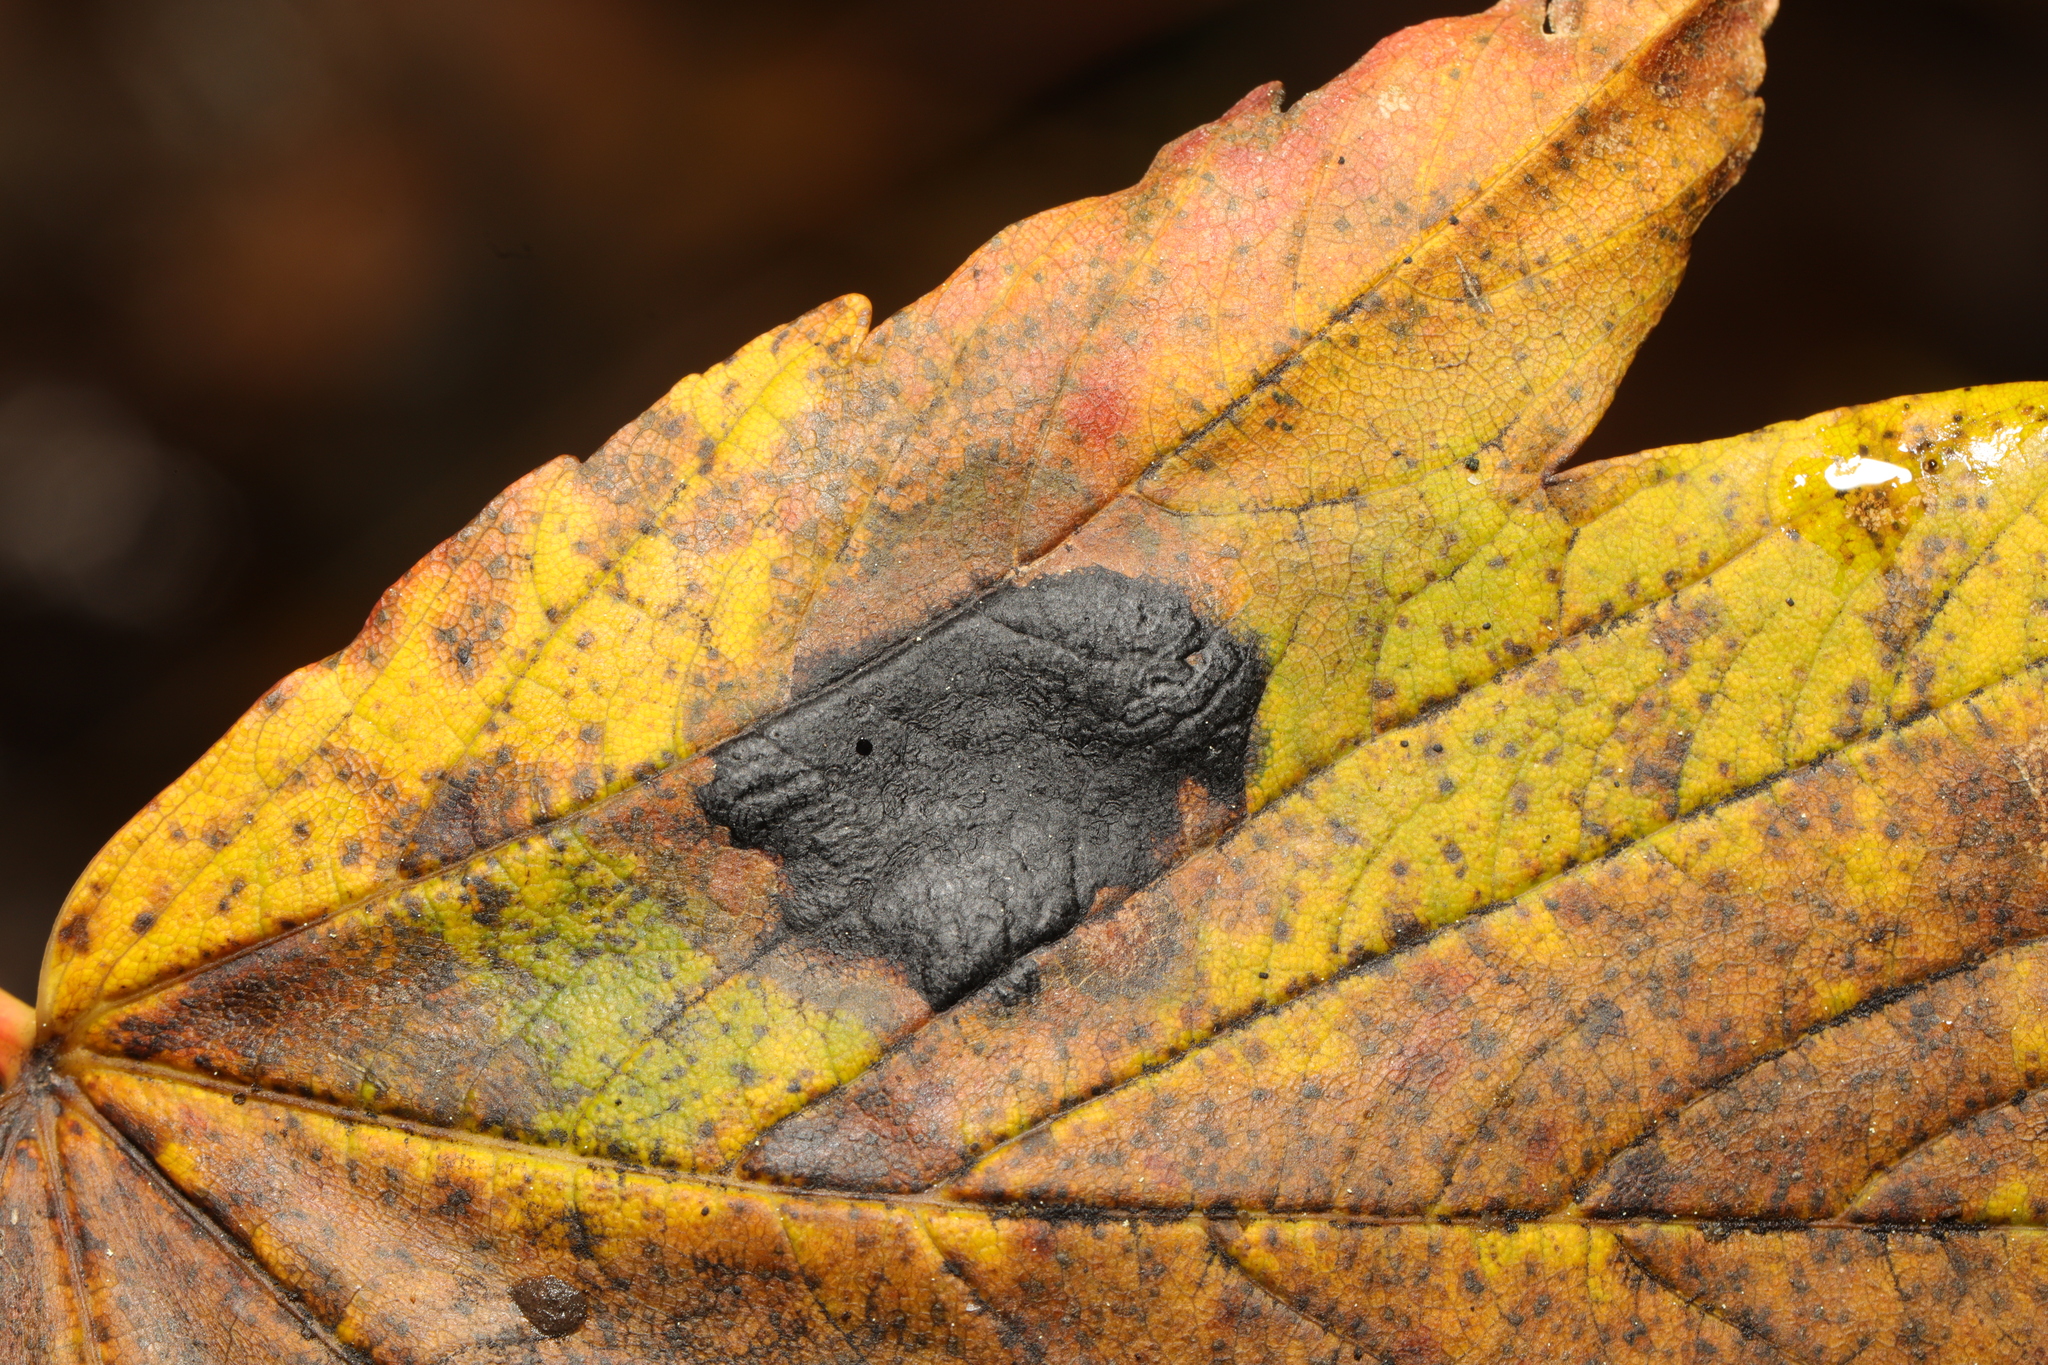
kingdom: Fungi
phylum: Ascomycota
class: Leotiomycetes
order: Rhytismatales
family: Rhytismataceae
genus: Rhytisma
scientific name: Rhytisma acerinum
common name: European tar spot
